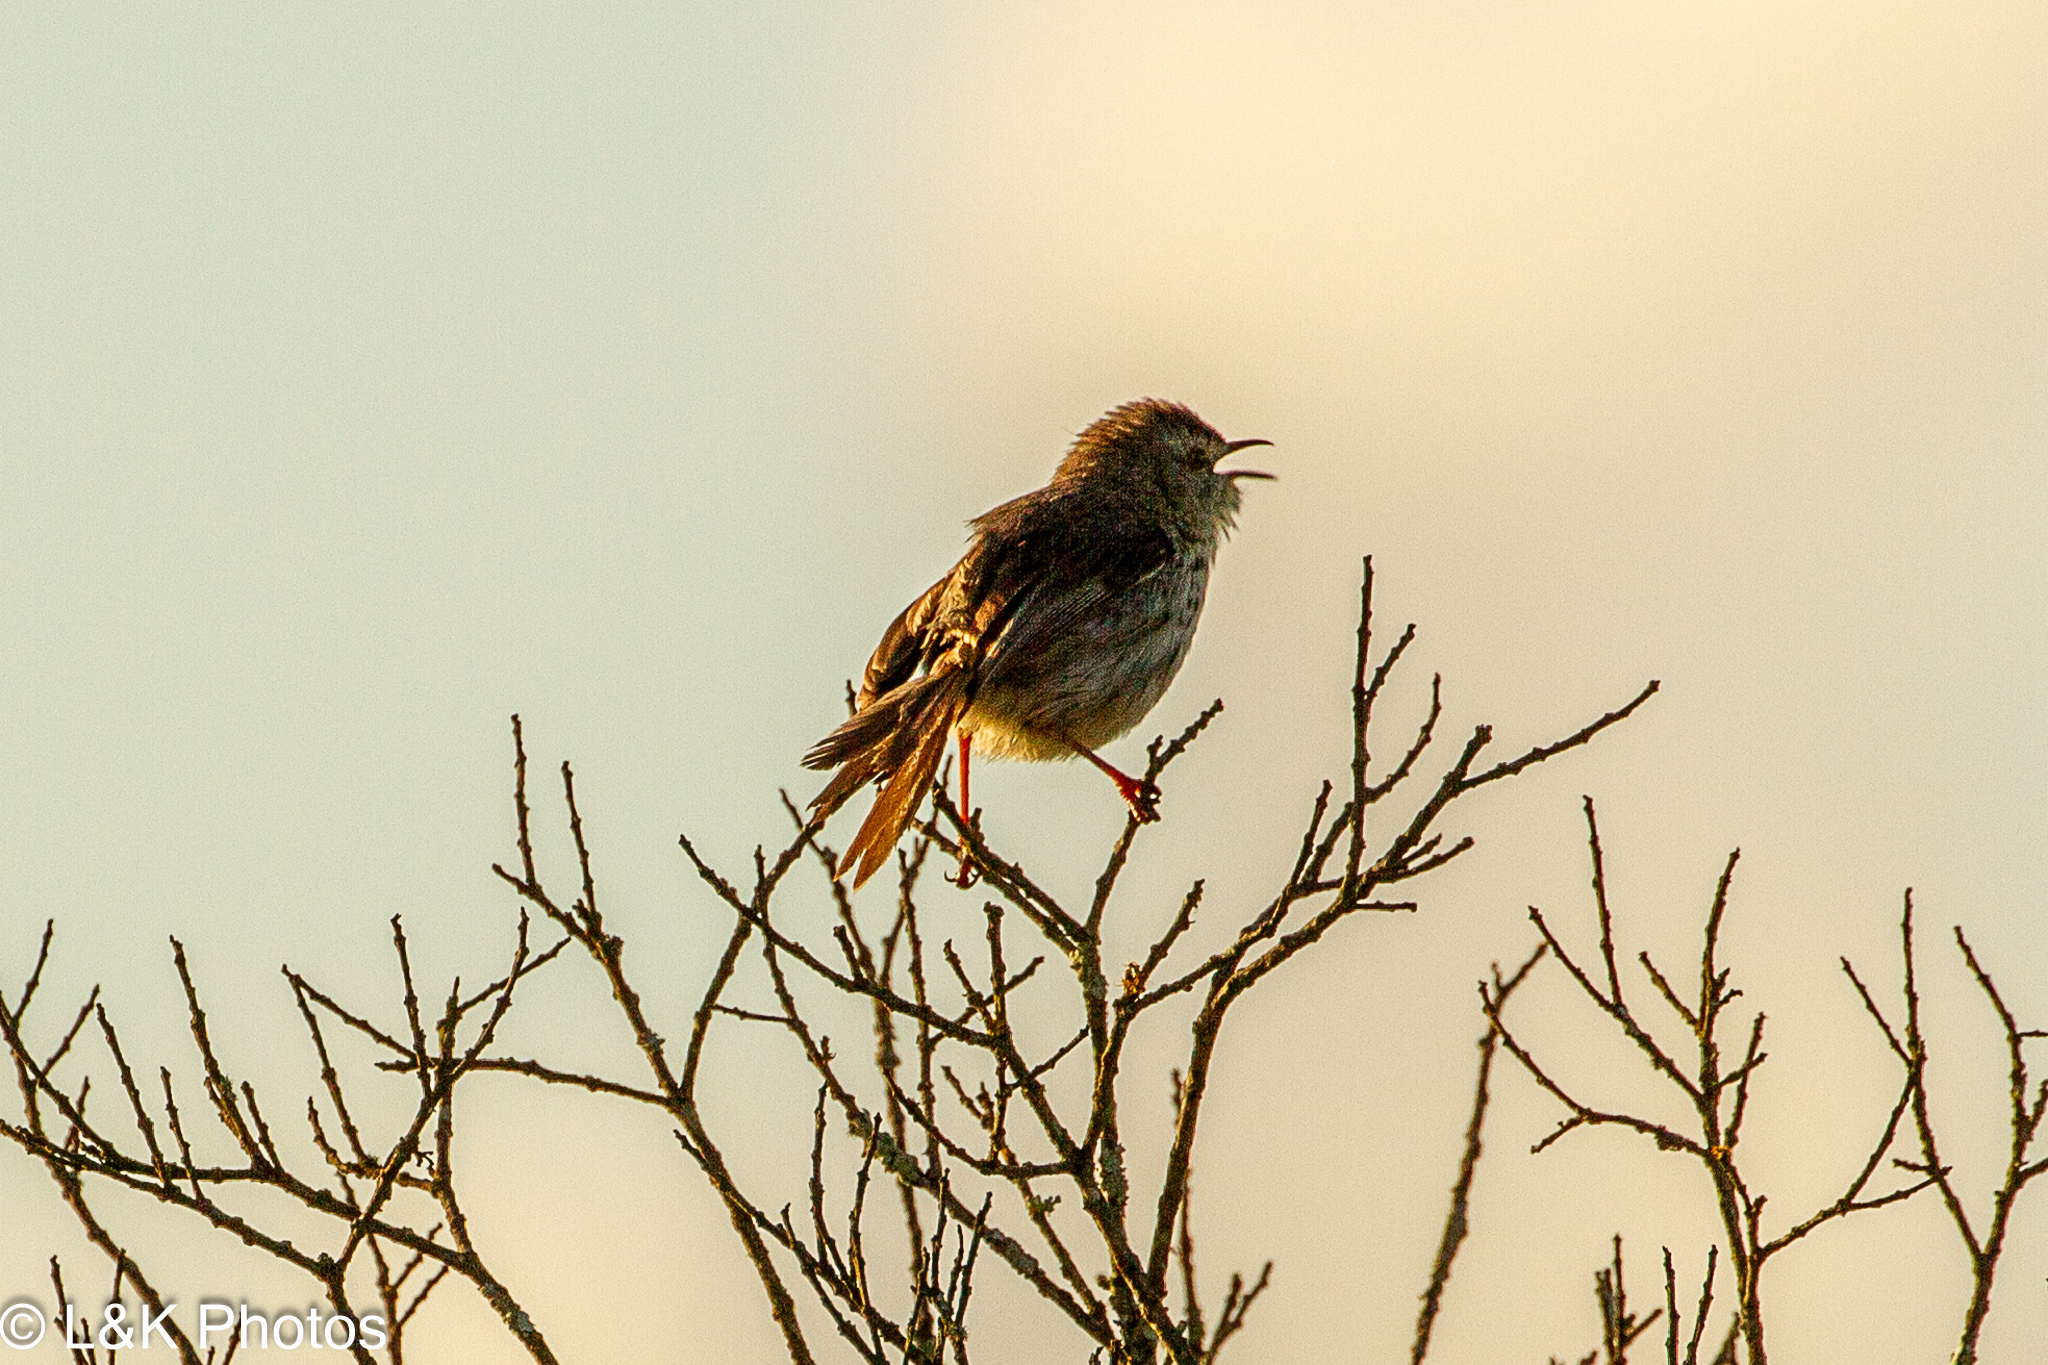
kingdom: Animalia
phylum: Chordata
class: Aves
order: Passeriformes
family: Cisticolidae
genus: Prinia
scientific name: Prinia maculosa
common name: Karoo prinia
